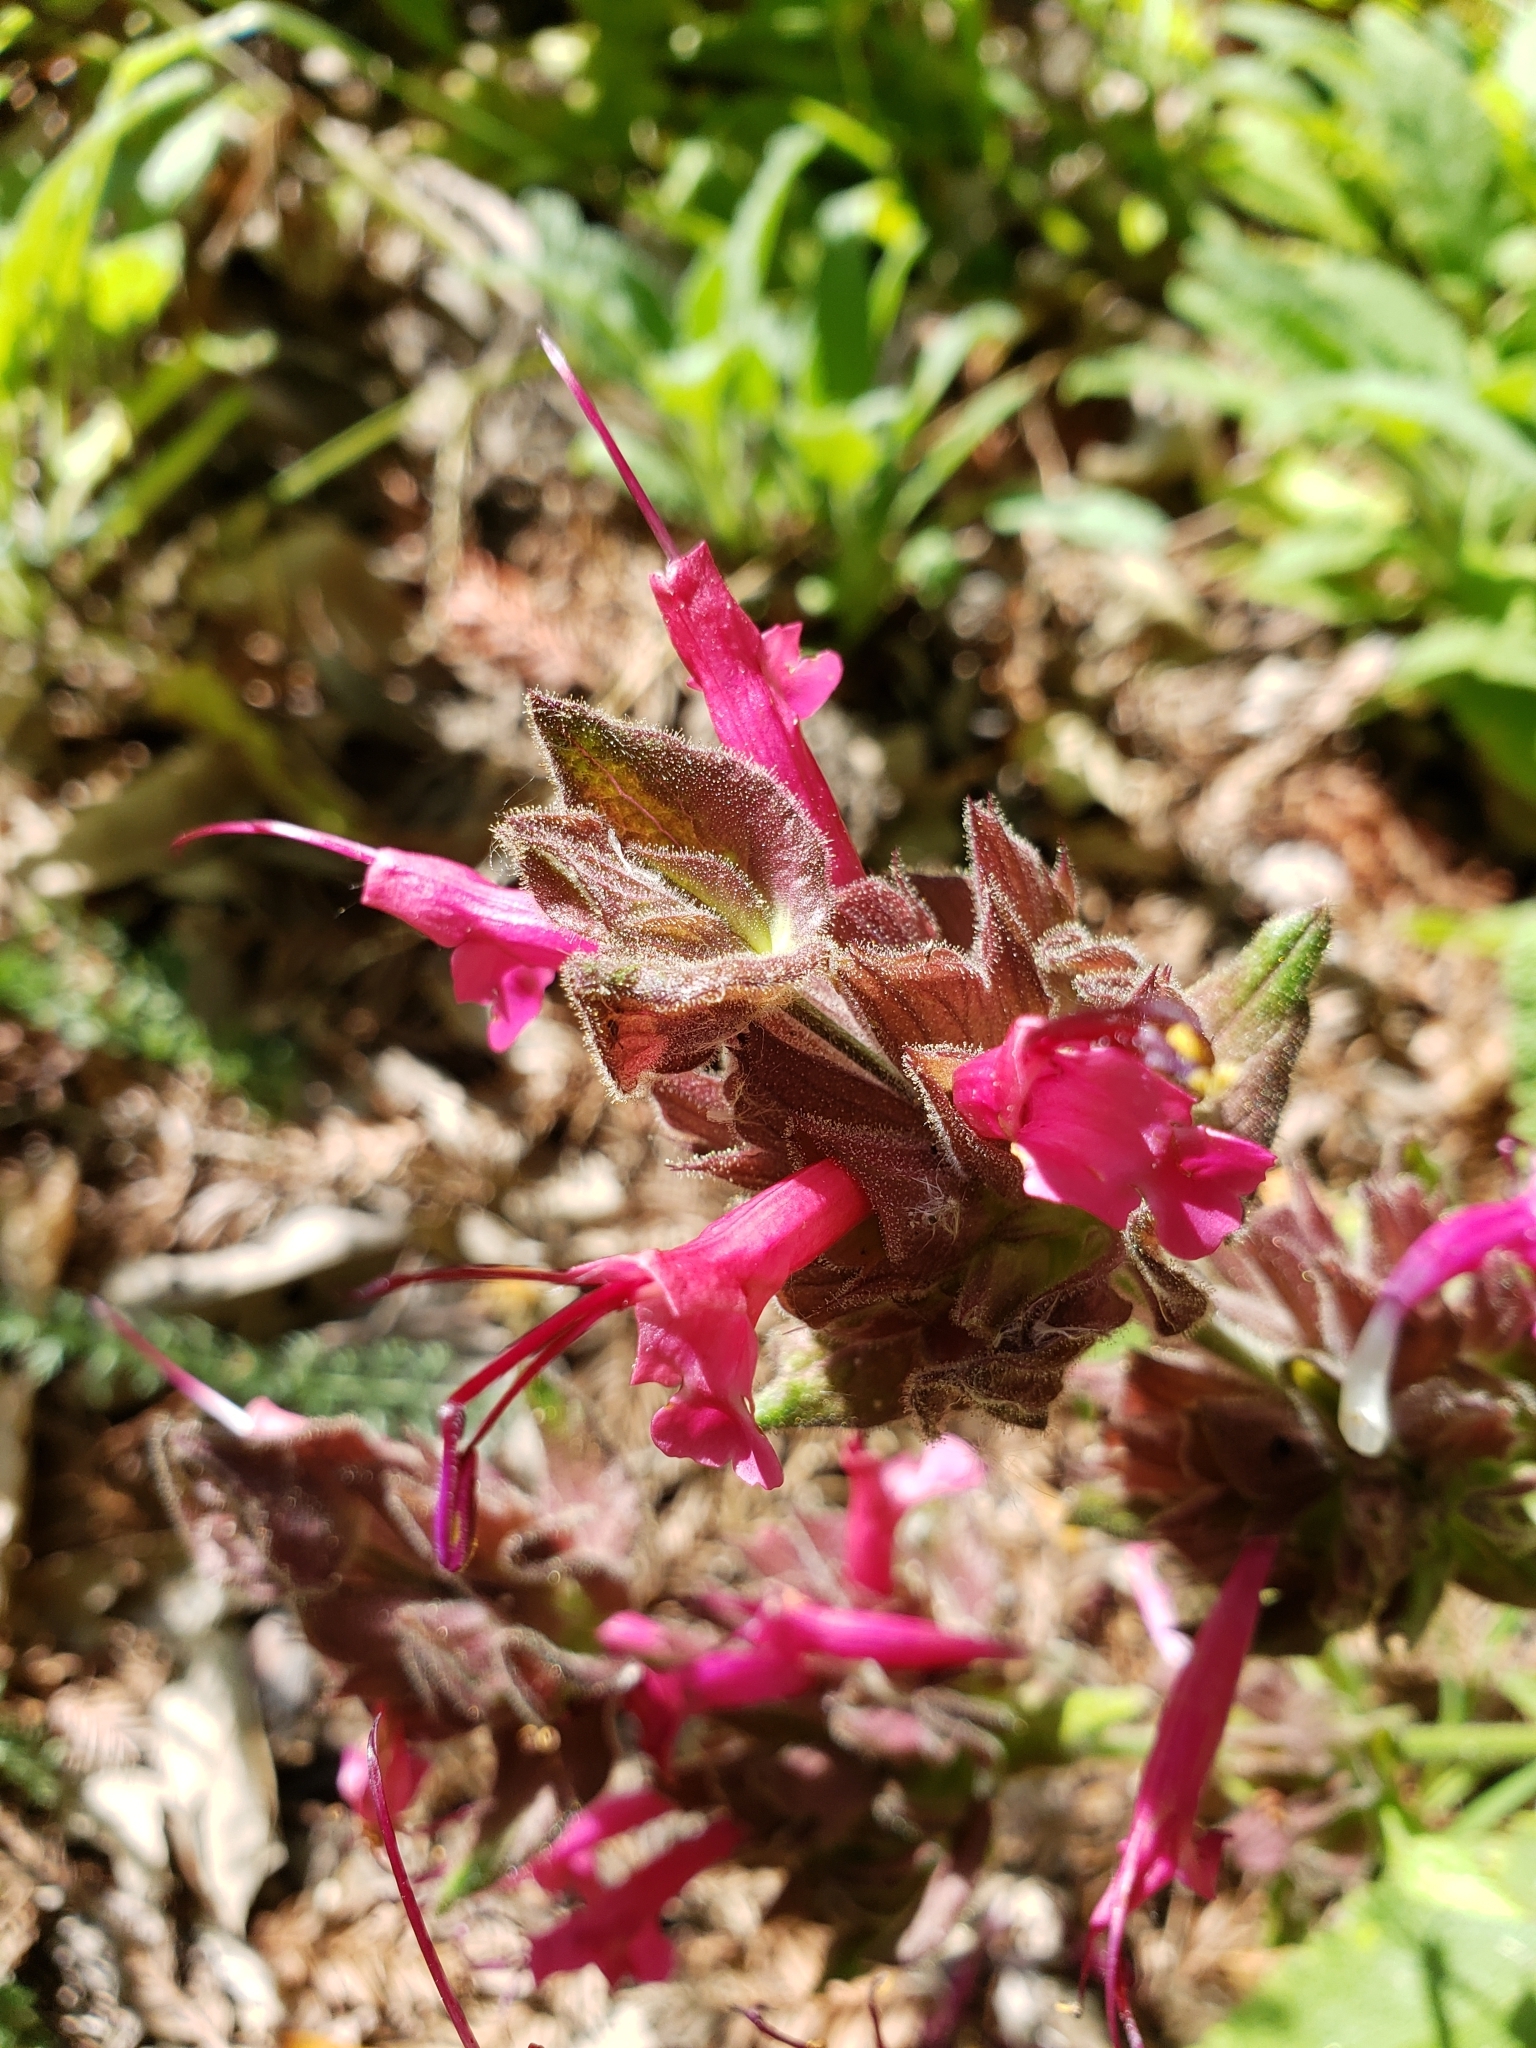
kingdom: Plantae
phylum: Tracheophyta
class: Magnoliopsida
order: Lamiales
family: Lamiaceae
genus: Salvia
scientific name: Salvia spathacea
